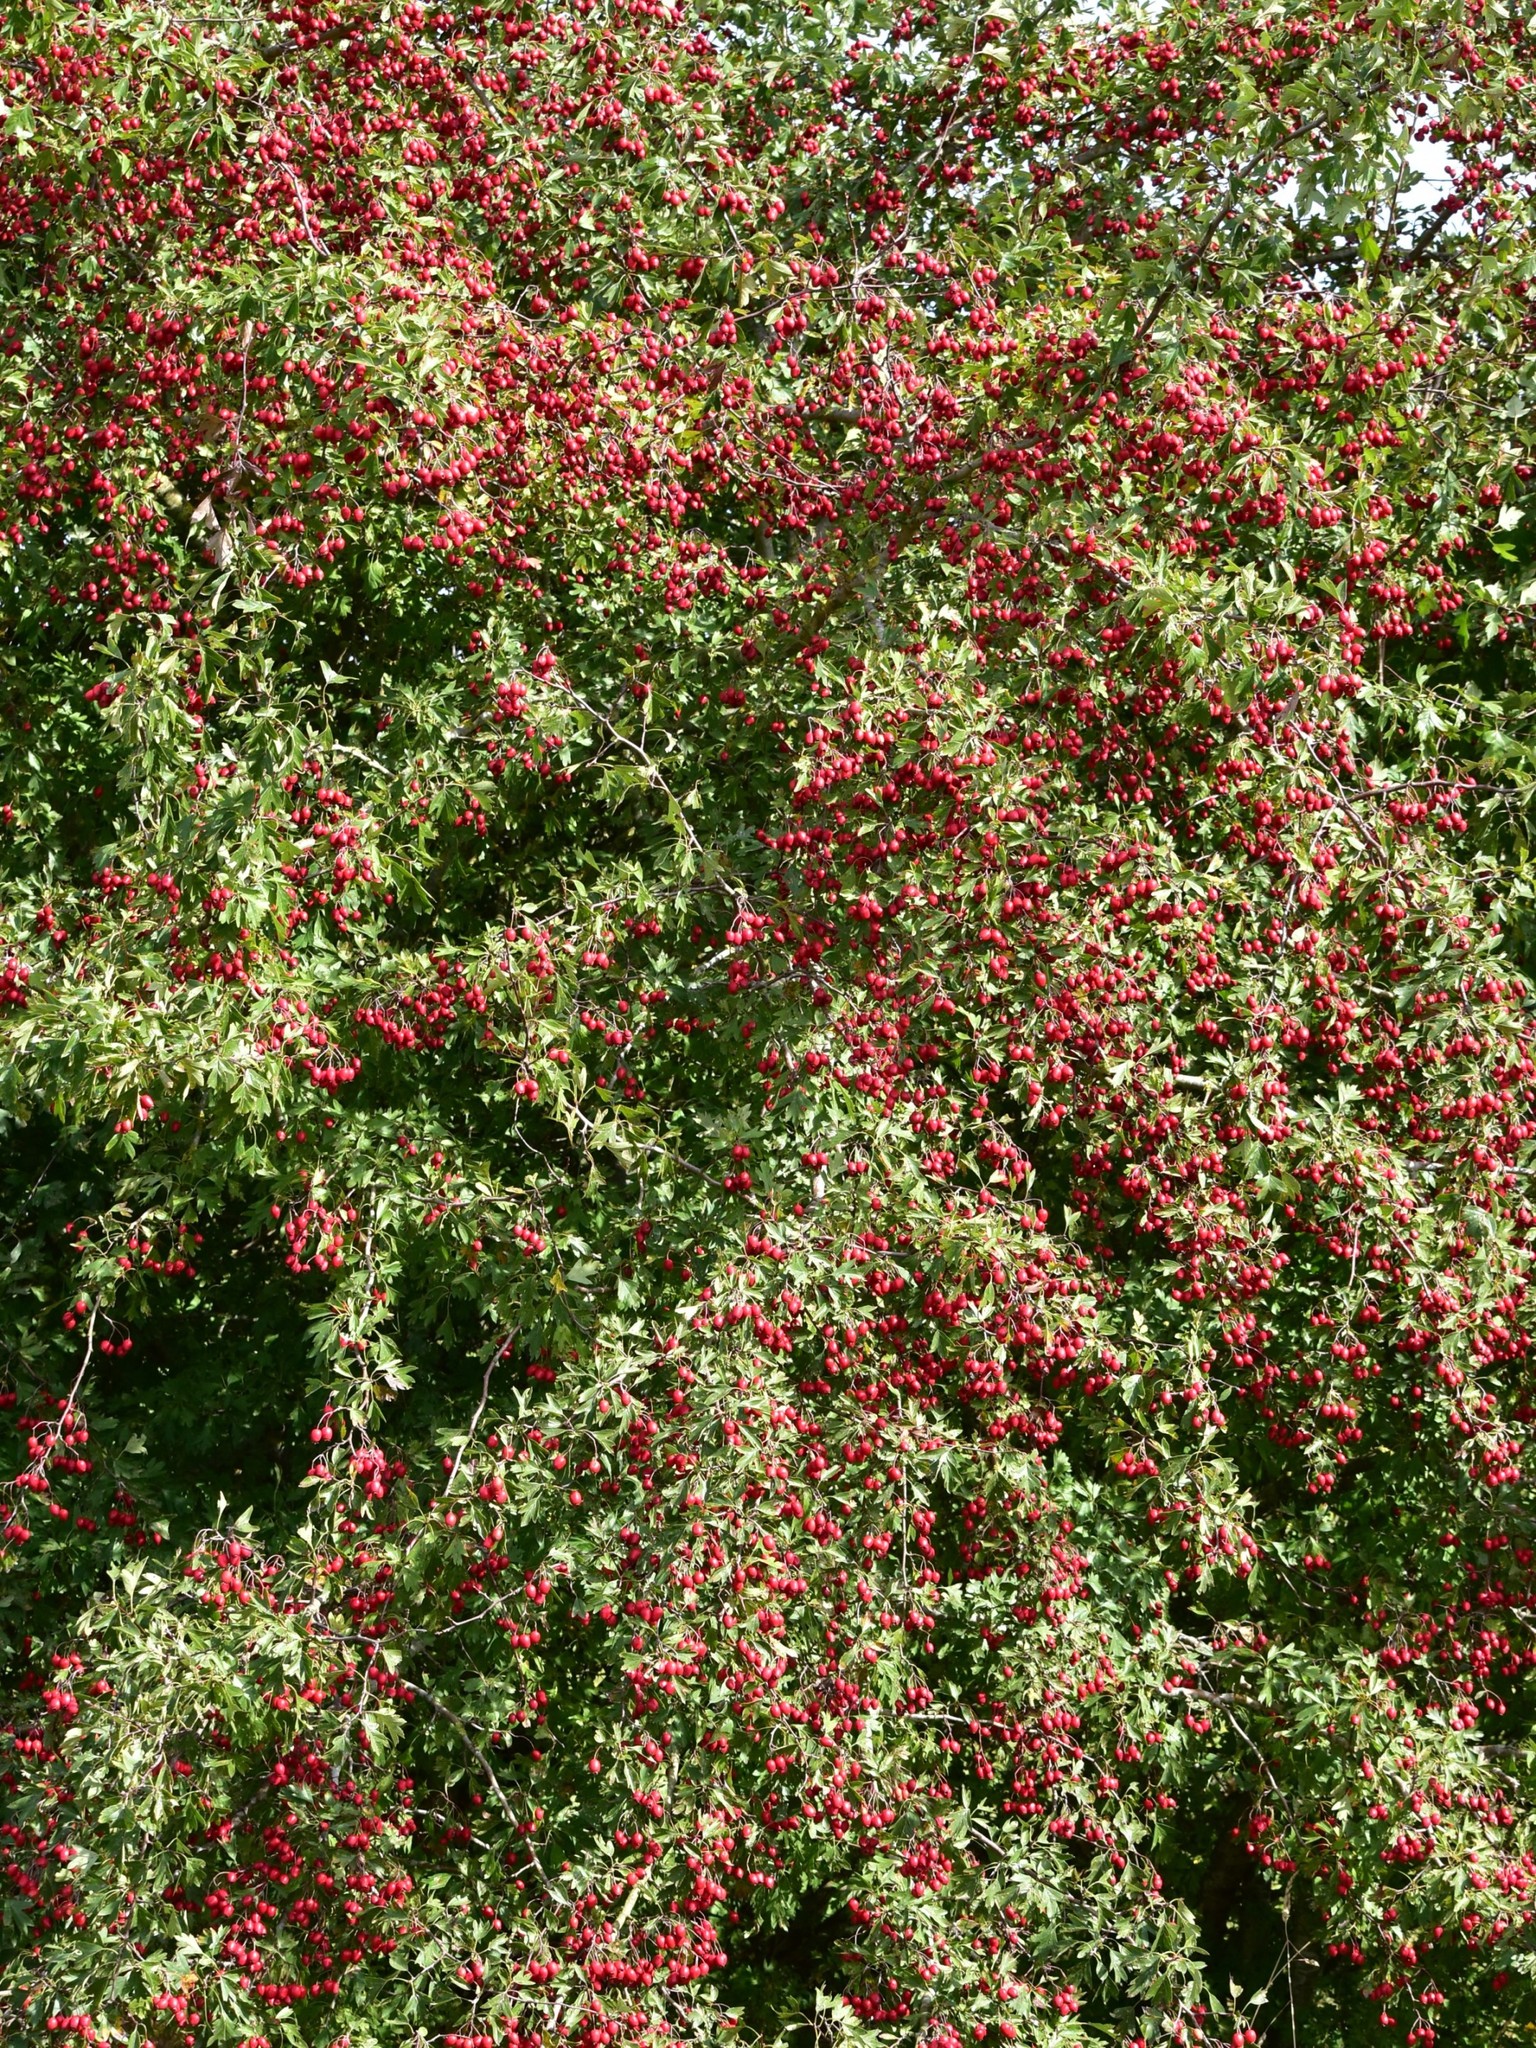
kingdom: Plantae
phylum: Tracheophyta
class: Magnoliopsida
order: Rosales
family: Rosaceae
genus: Crataegus
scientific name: Crataegus monogyna
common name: Hawthorn
